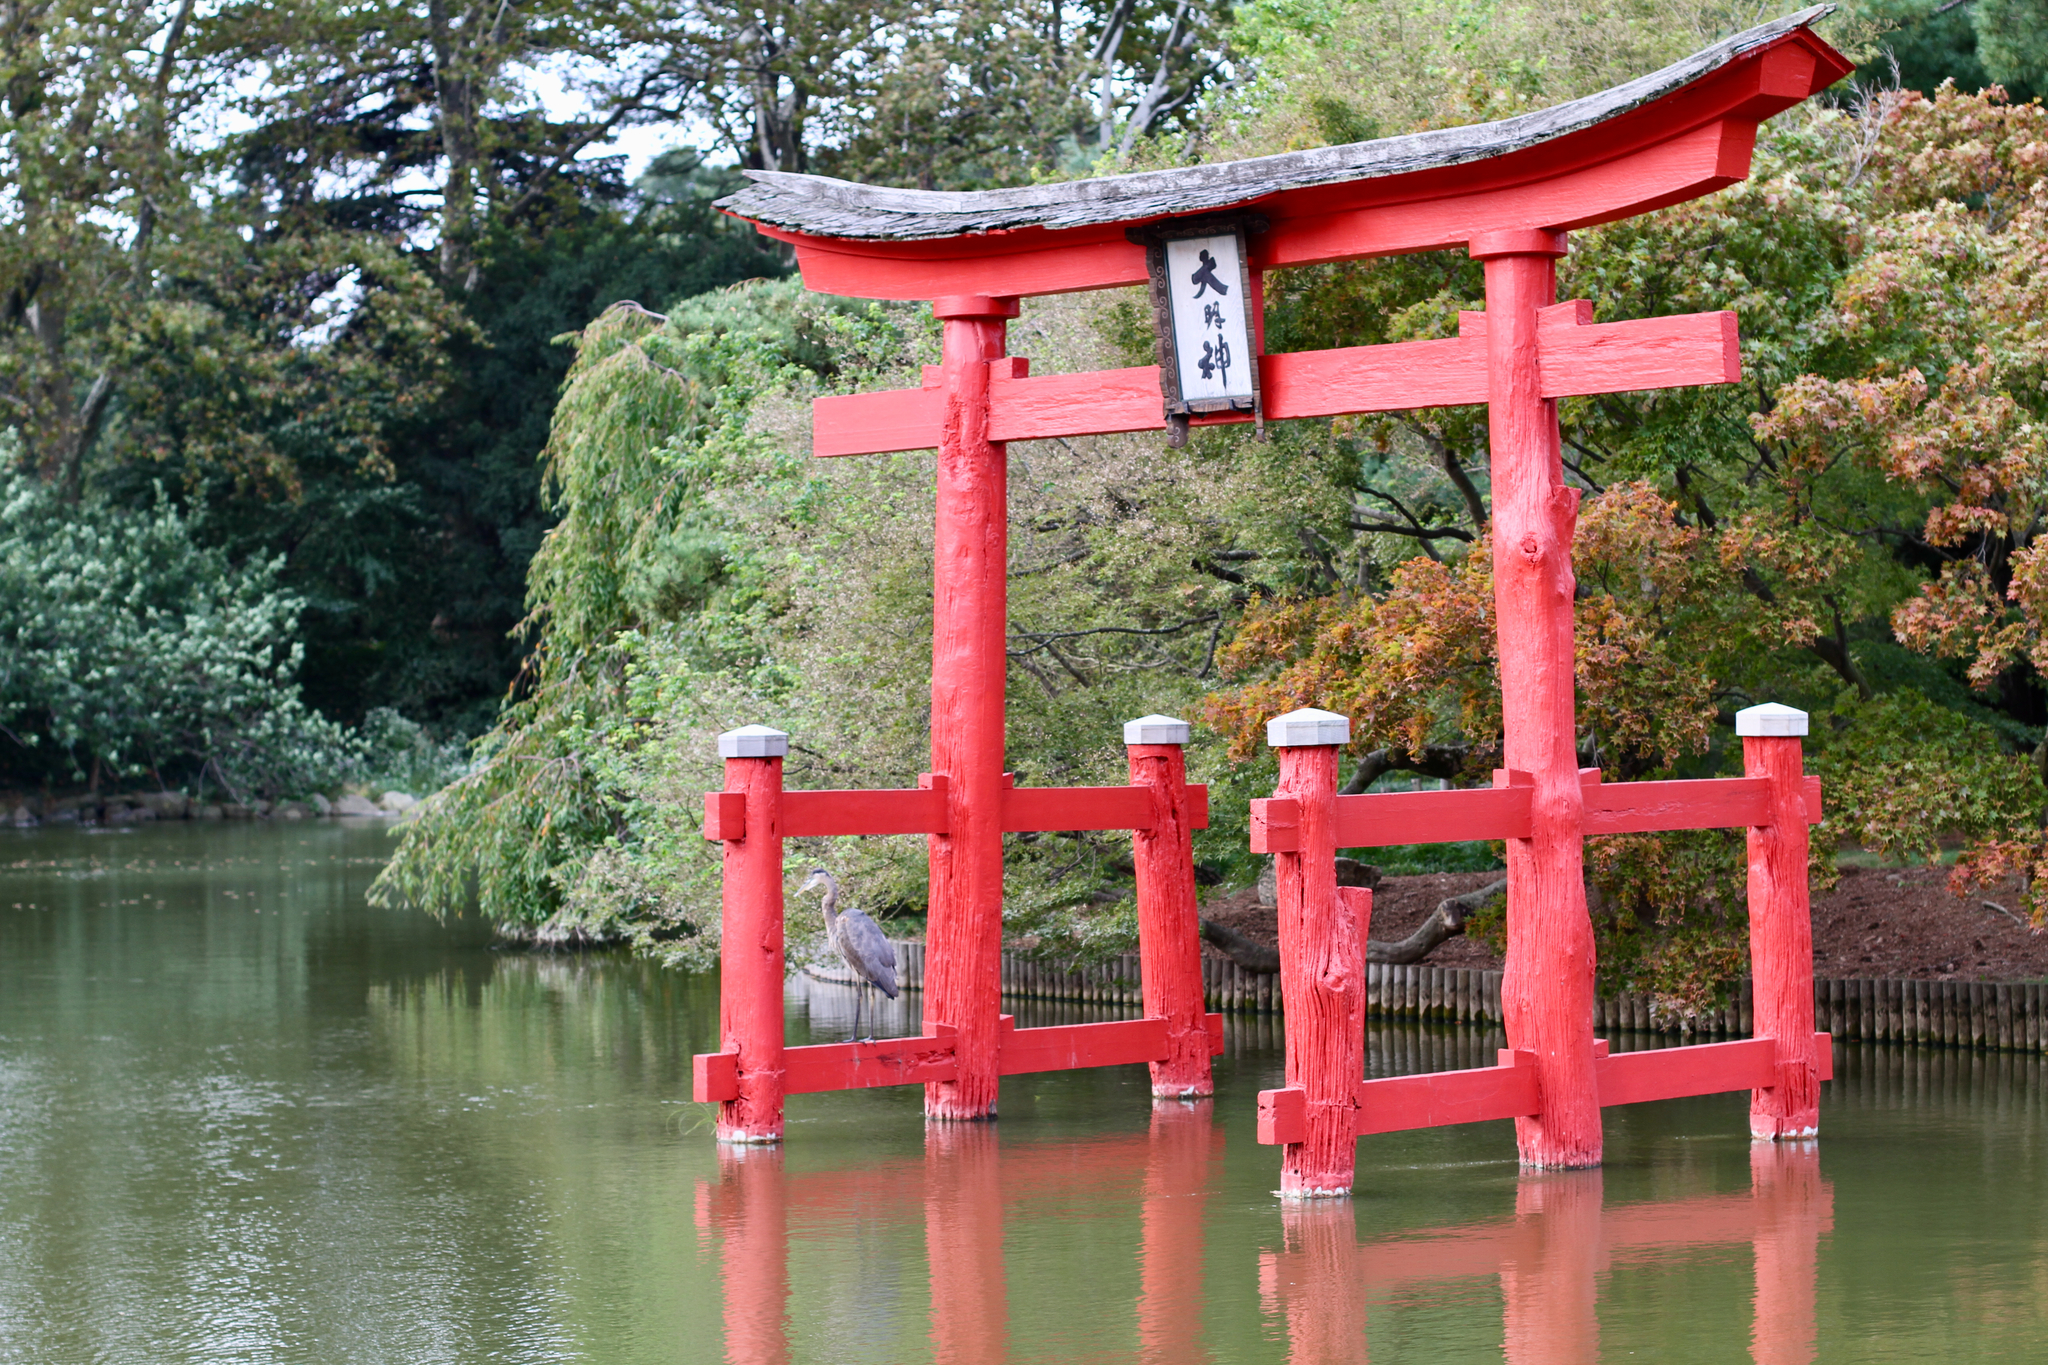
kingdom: Animalia
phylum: Chordata
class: Aves
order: Pelecaniformes
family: Ardeidae
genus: Ardea
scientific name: Ardea herodias
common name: Great blue heron
